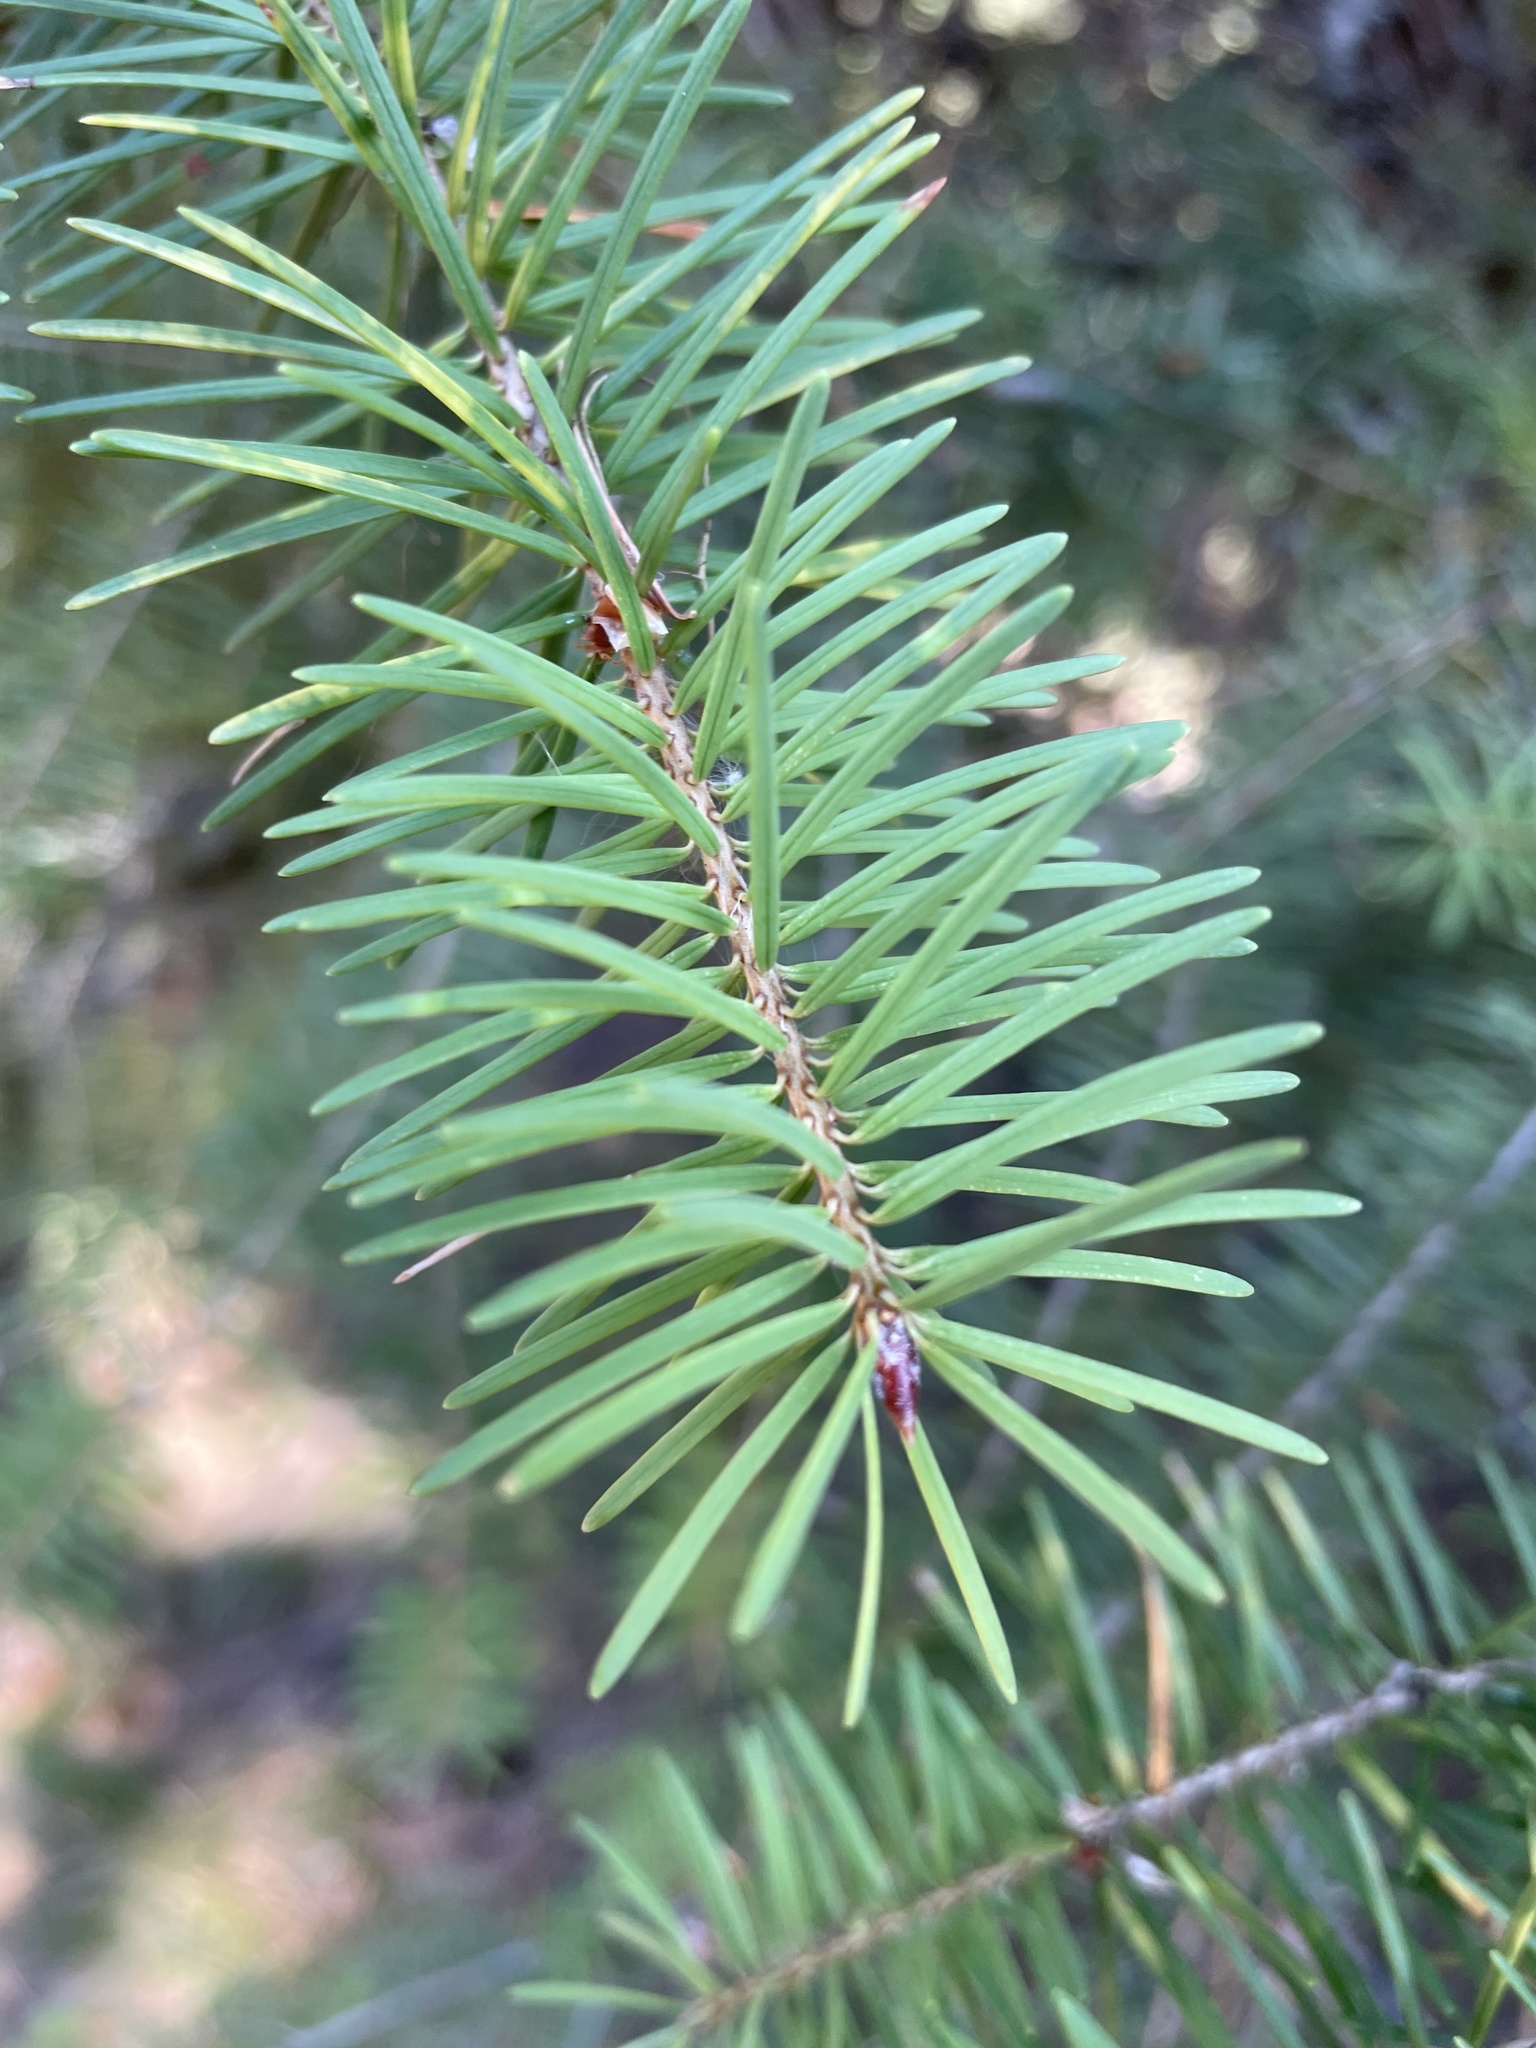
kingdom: Plantae
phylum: Tracheophyta
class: Pinopsida
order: Pinales
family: Pinaceae
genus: Pseudotsuga
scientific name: Pseudotsuga menziesii
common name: Douglas fir
